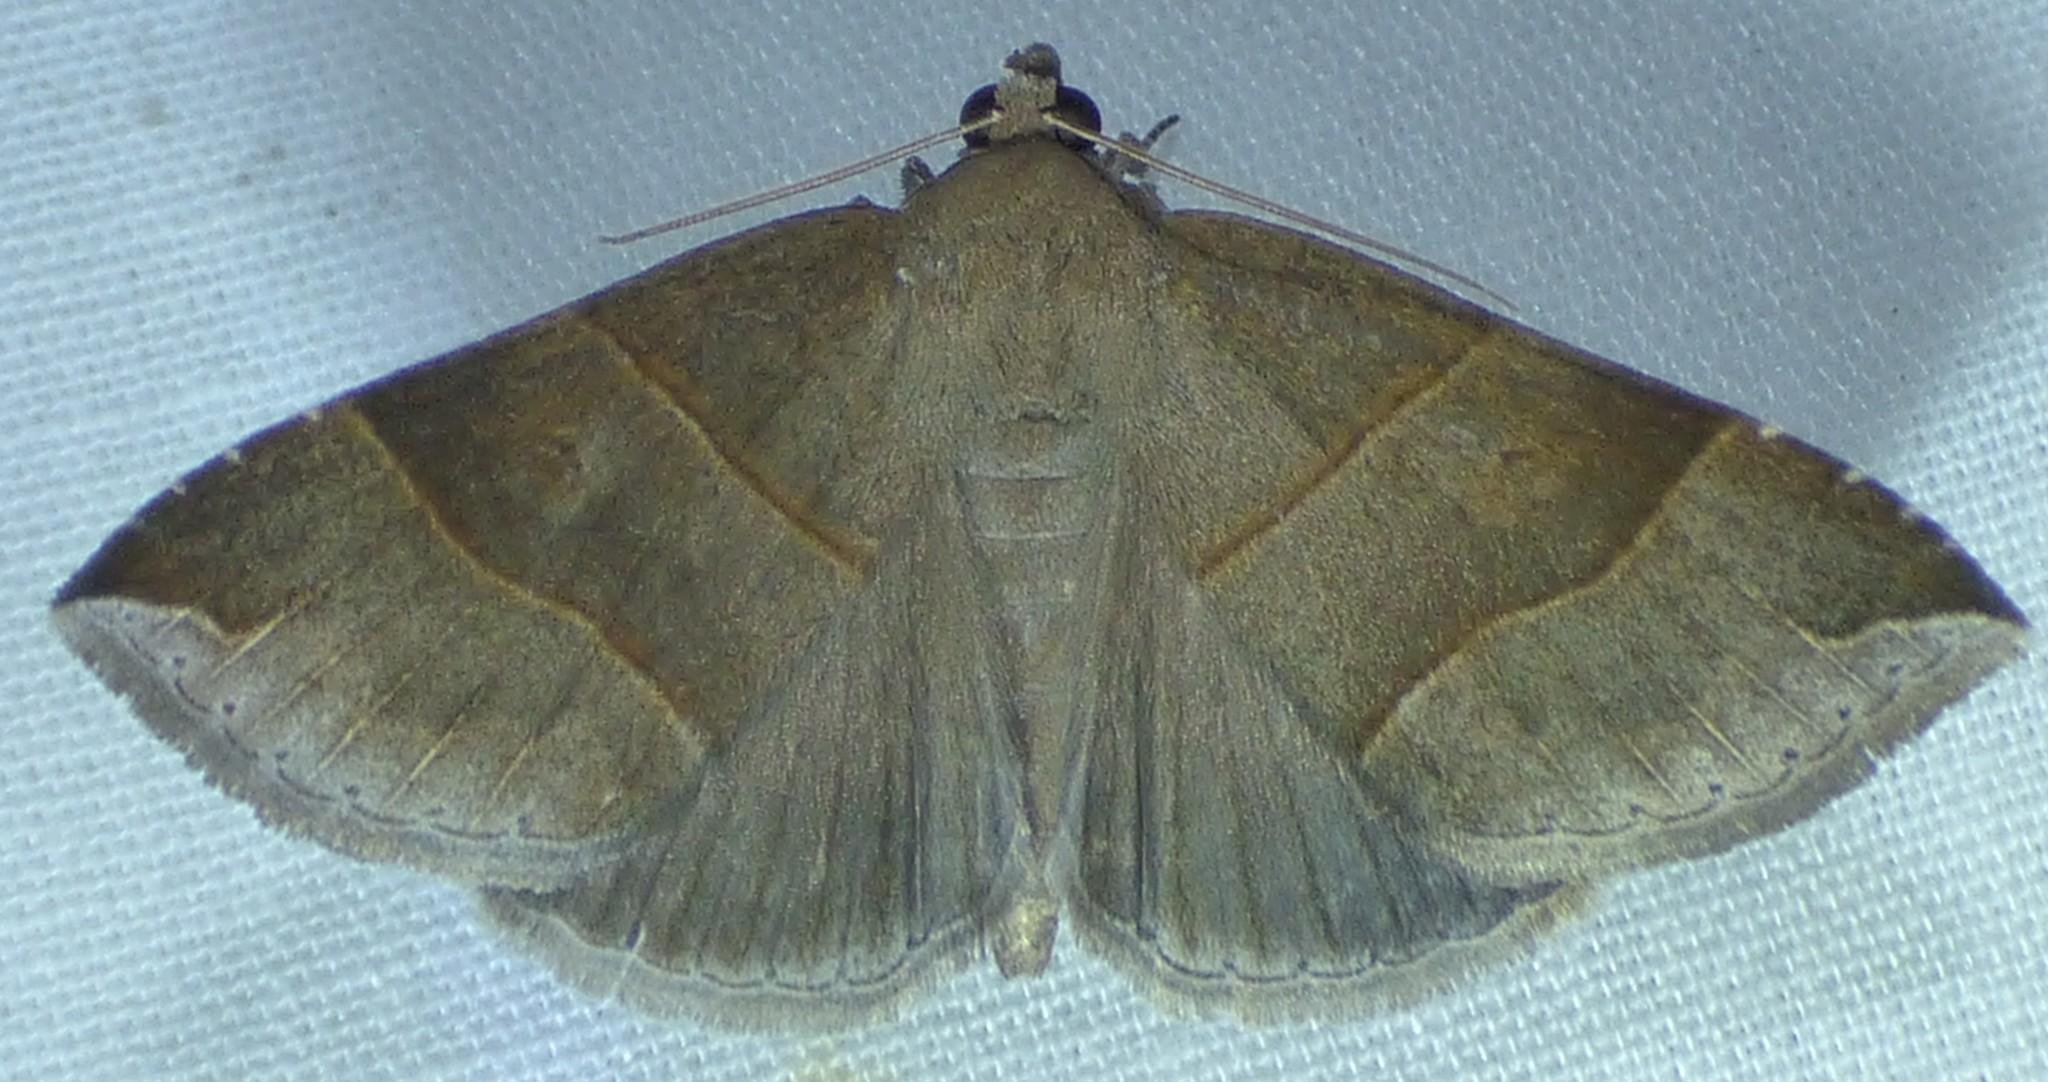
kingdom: Animalia
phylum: Arthropoda
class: Insecta
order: Lepidoptera
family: Erebidae
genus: Parallelia
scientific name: Parallelia bistriaris
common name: Maple looper moth
